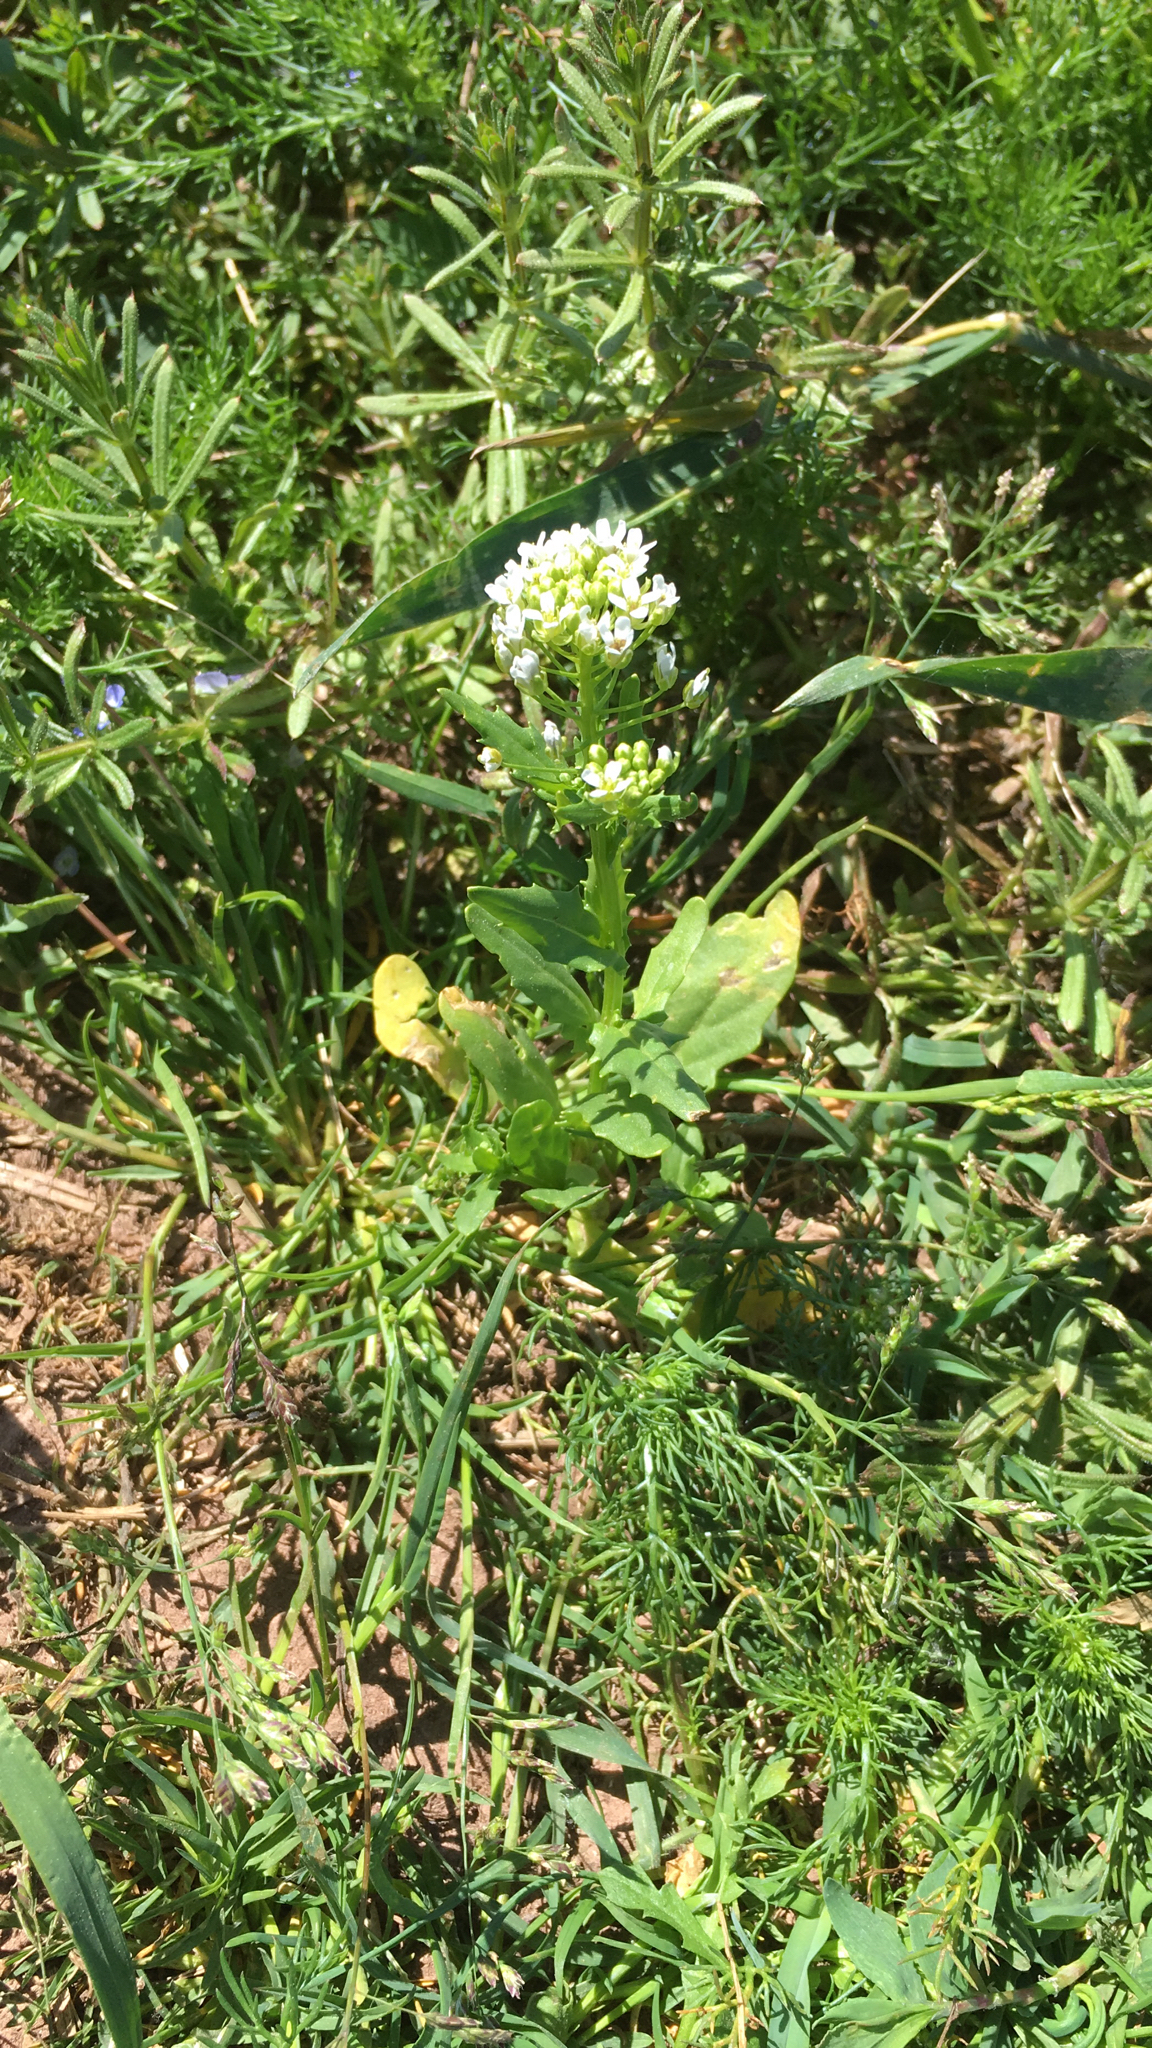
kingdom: Plantae
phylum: Tracheophyta
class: Magnoliopsida
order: Brassicales
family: Brassicaceae
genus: Thlaspi
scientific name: Thlaspi arvense
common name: Field pennycress
